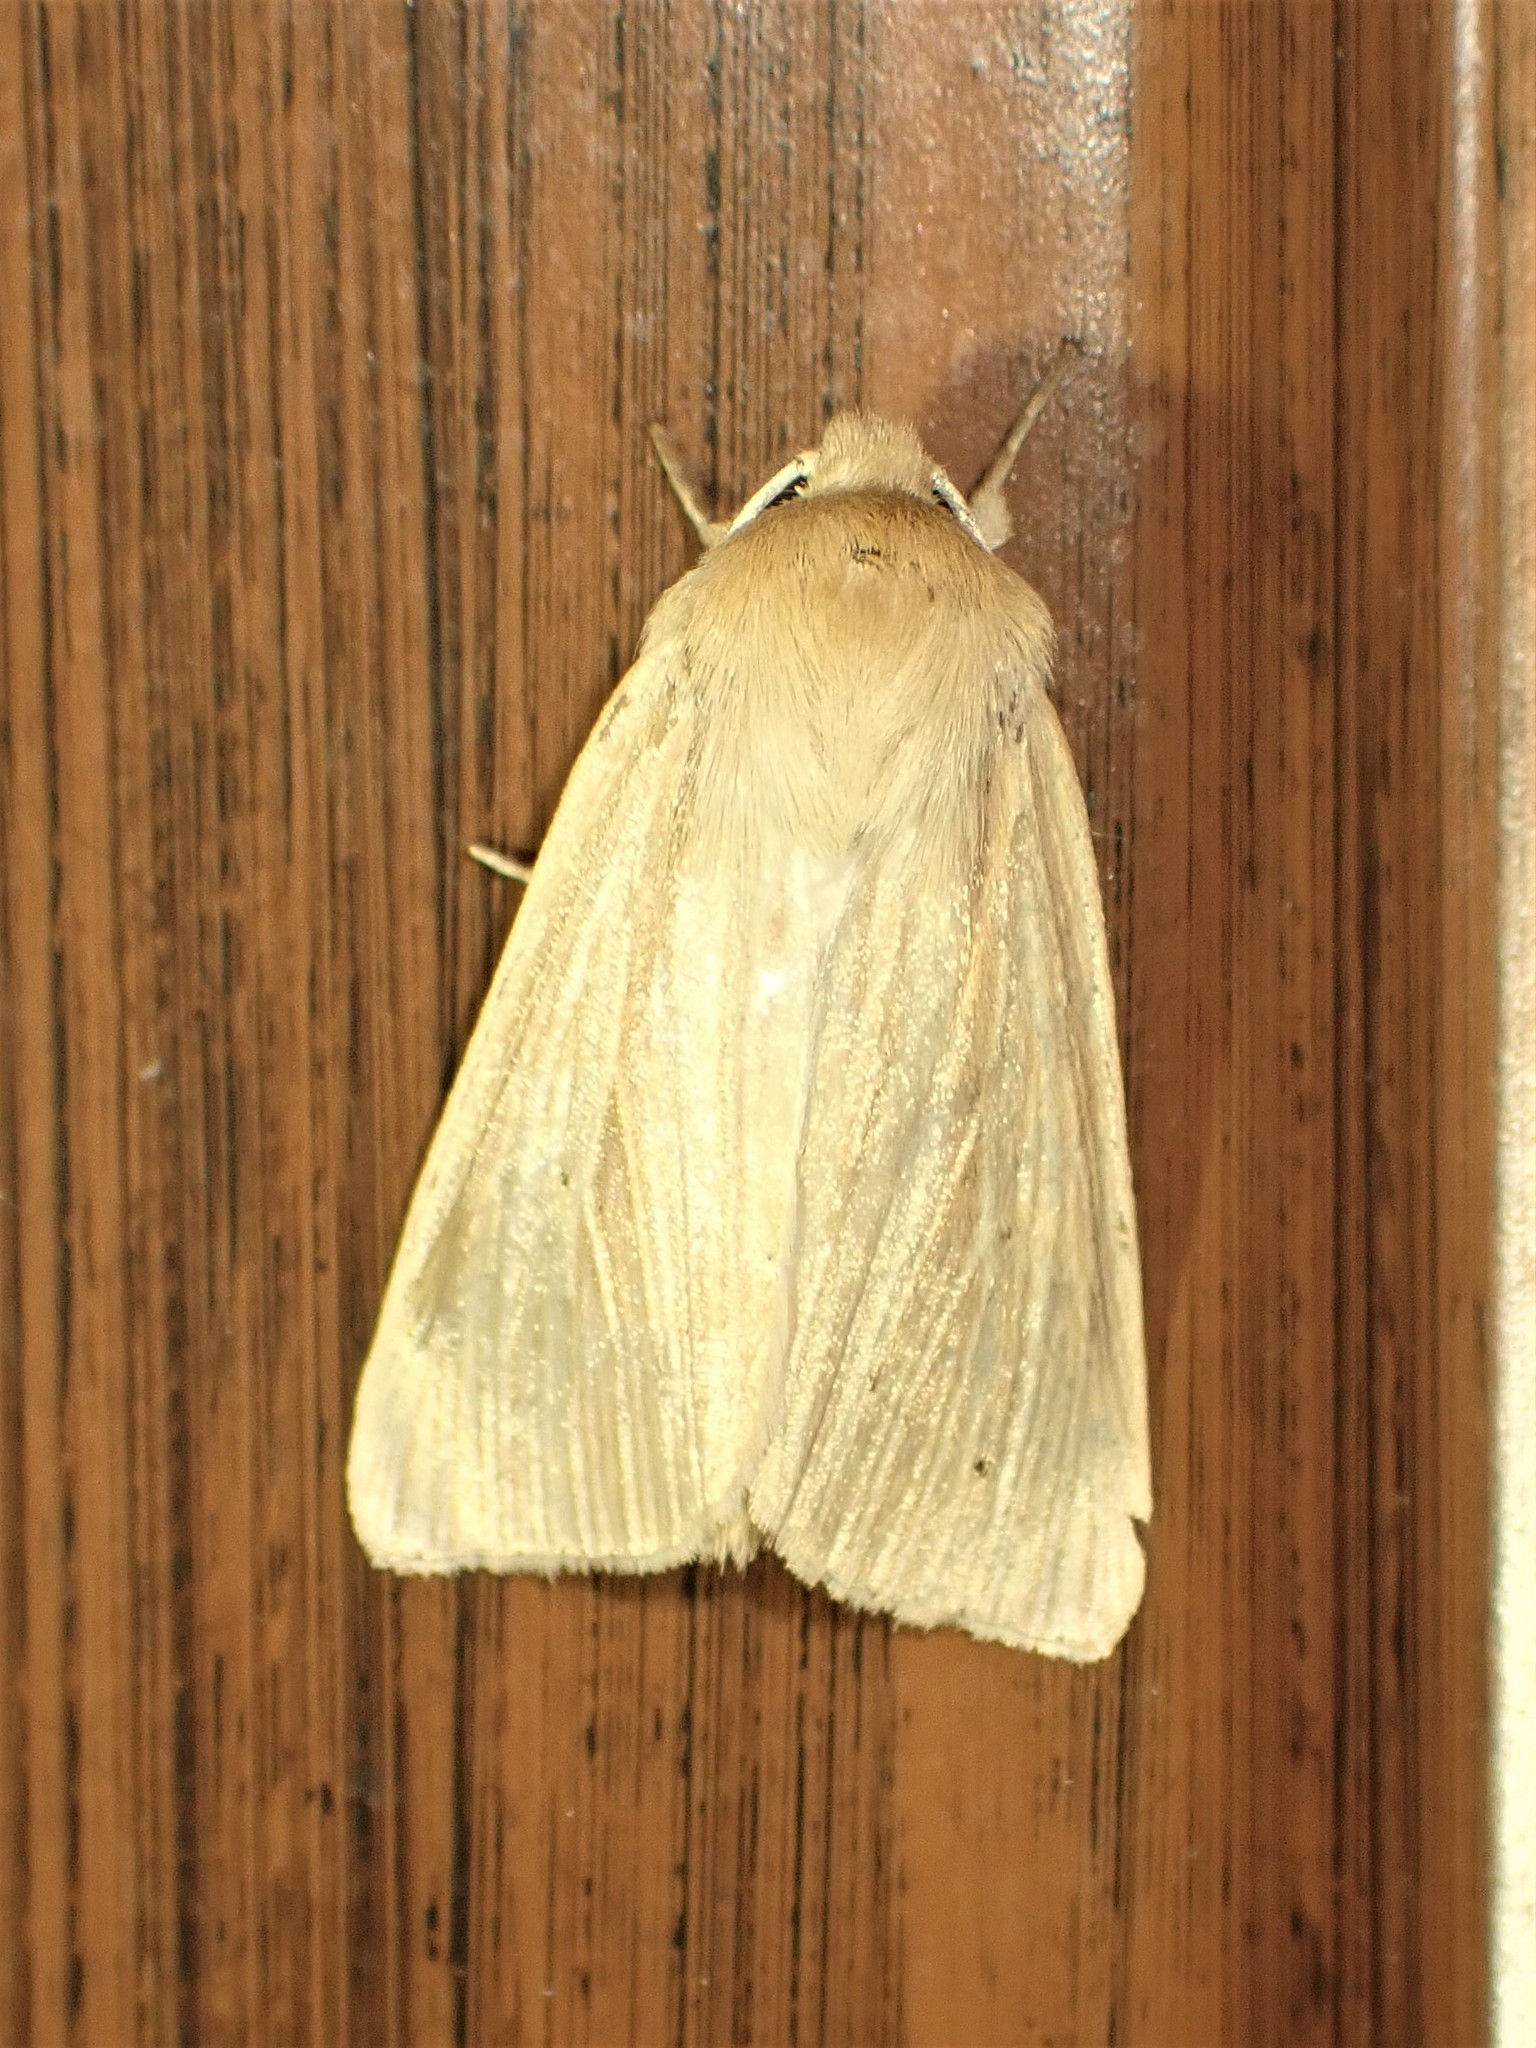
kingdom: Animalia
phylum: Arthropoda
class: Insecta
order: Lepidoptera
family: Noctuidae
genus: Mythimna
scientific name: Mythimna oxygala
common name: Lesser wainscot
